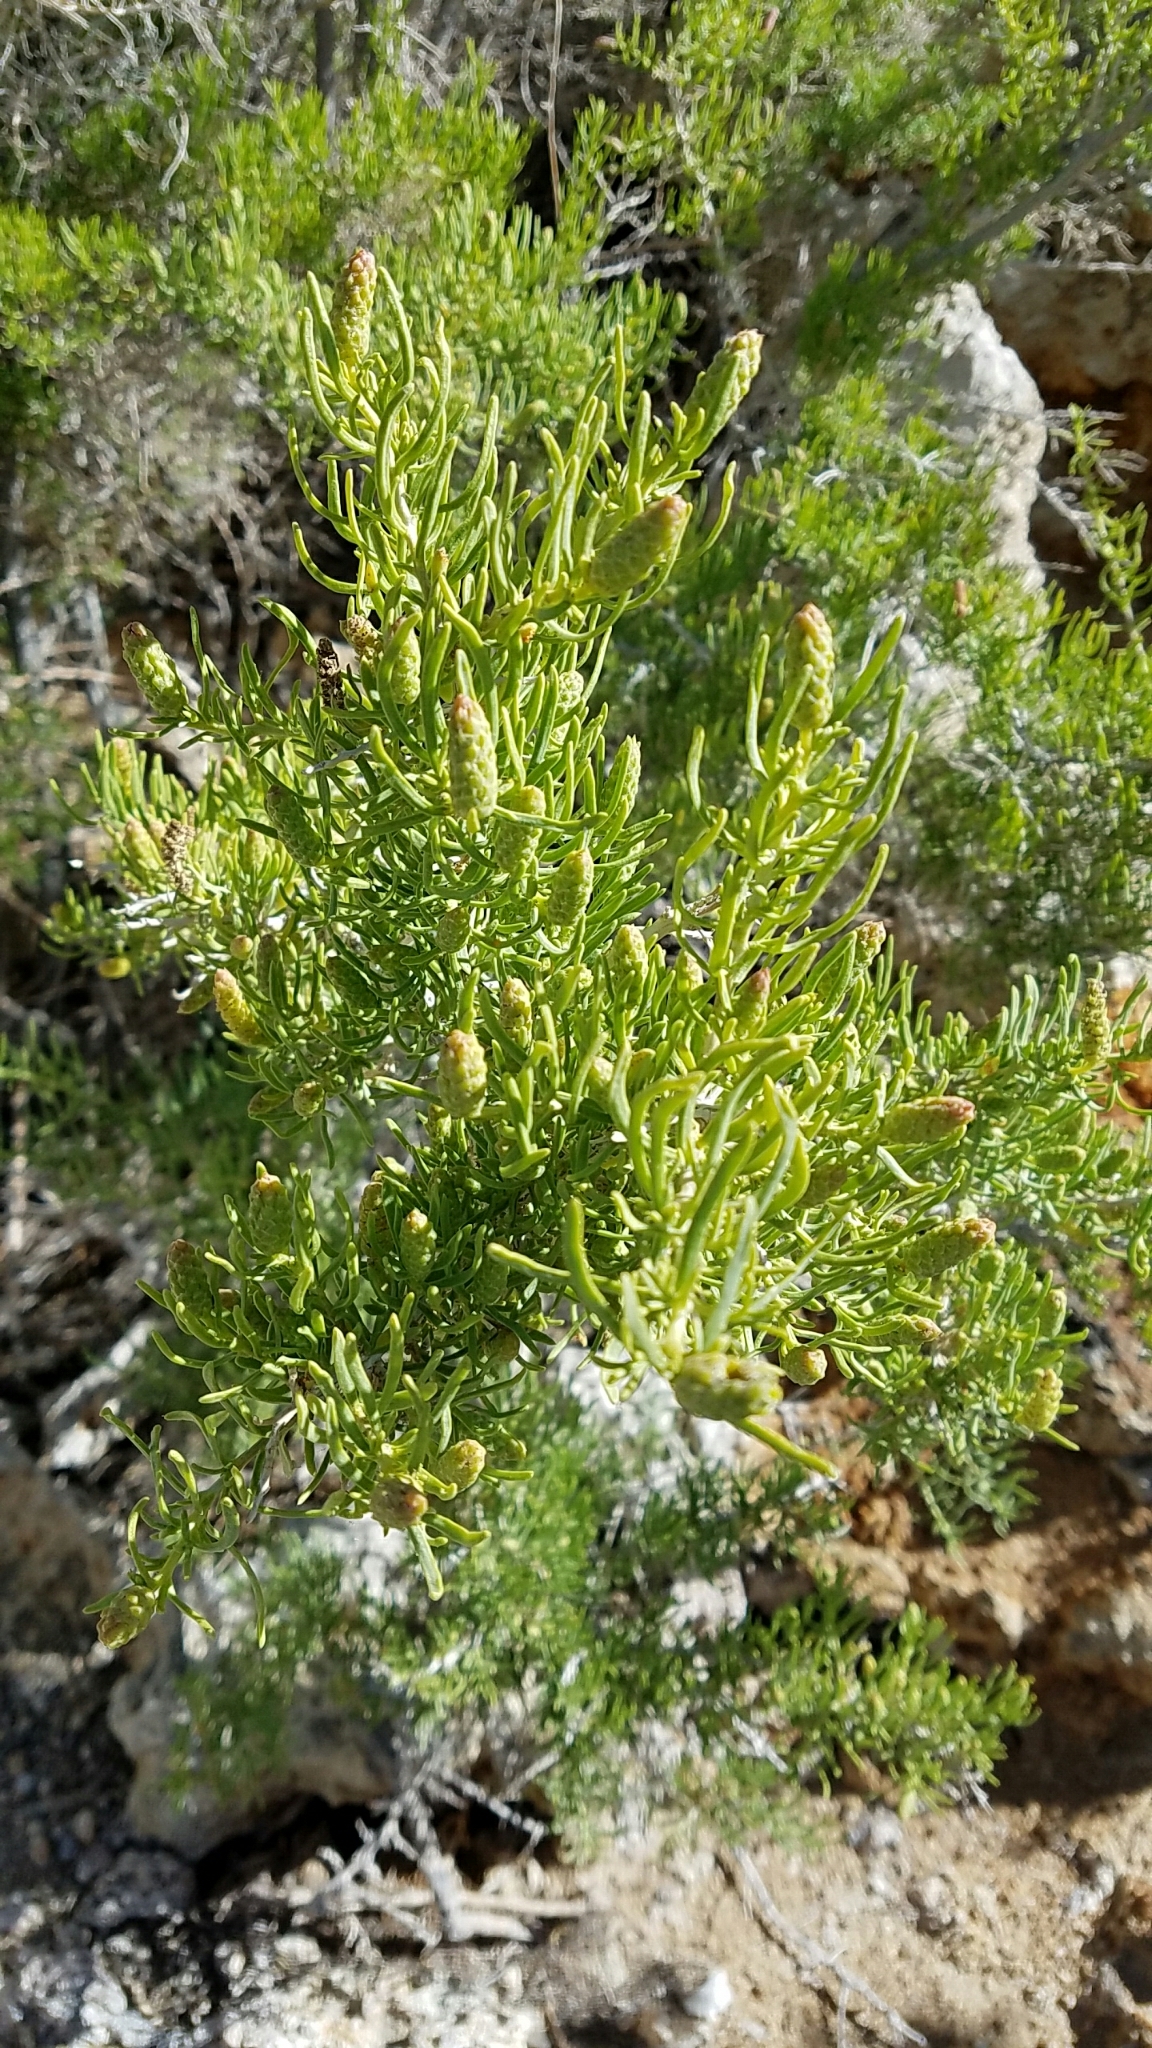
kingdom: Plantae
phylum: Tracheophyta
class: Magnoliopsida
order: Caryophyllales
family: Sarcobataceae
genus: Sarcobatus
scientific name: Sarcobatus vermiculatus
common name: Greasewood
